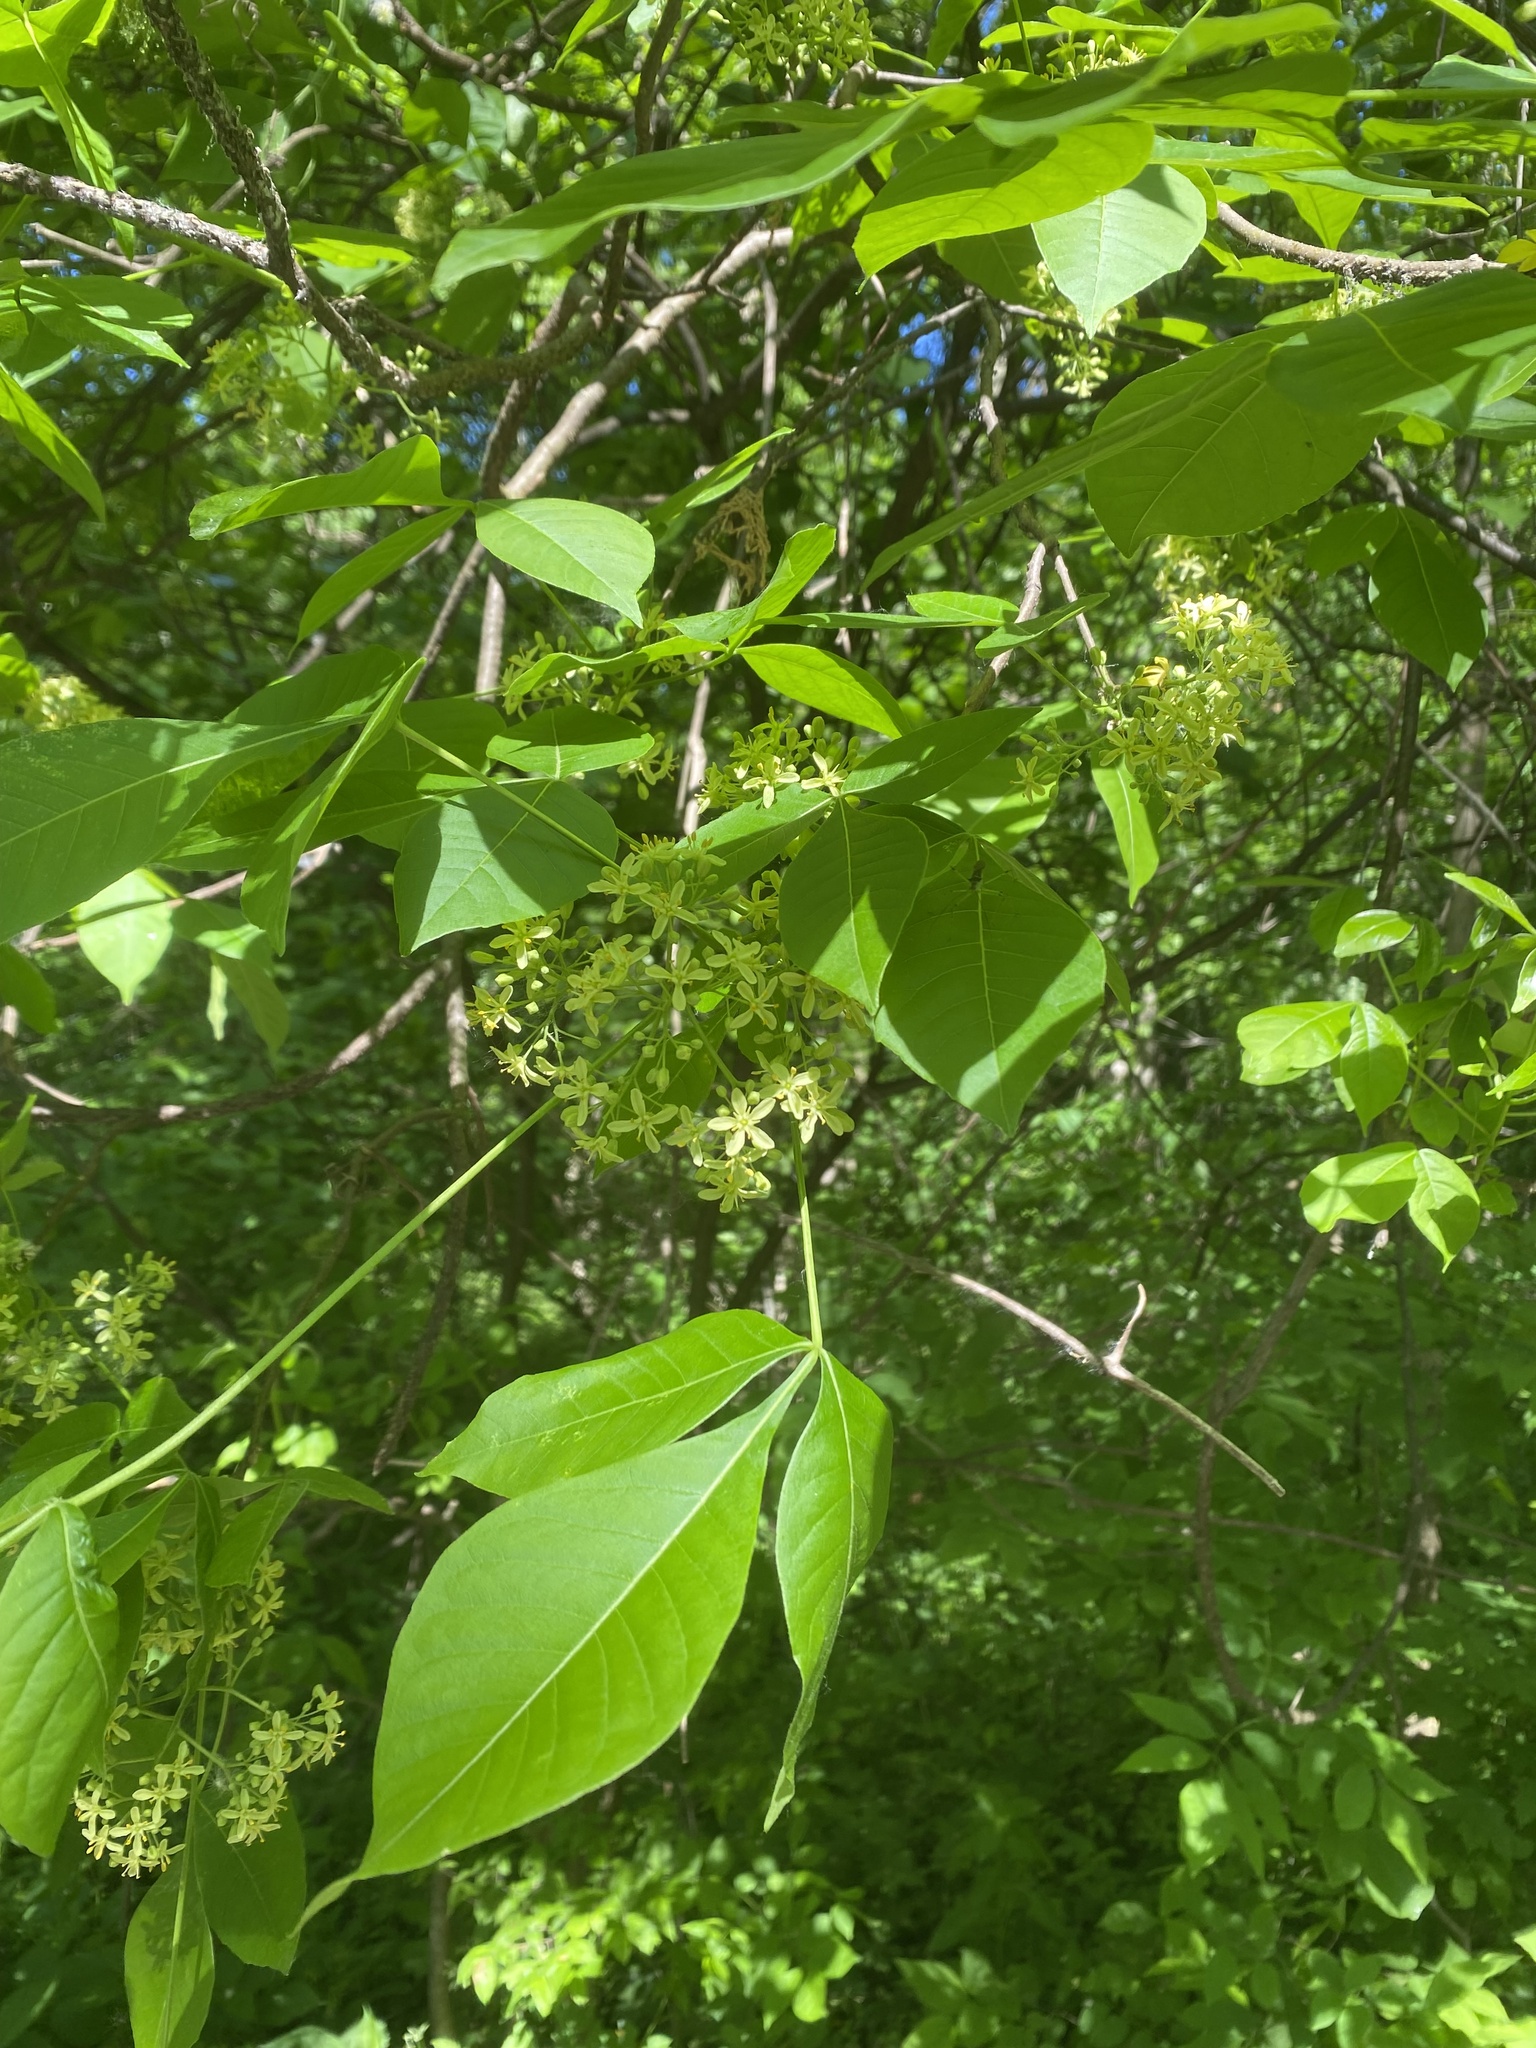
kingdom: Plantae
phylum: Tracheophyta
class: Magnoliopsida
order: Sapindales
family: Rutaceae
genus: Ptelea
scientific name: Ptelea trifoliata
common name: Common hop-tree
